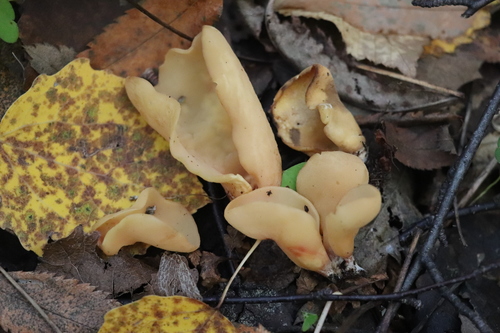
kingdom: Fungi
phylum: Ascomycota
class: Pezizomycetes
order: Pezizales
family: Otideaceae
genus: Otidea
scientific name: Otidea
